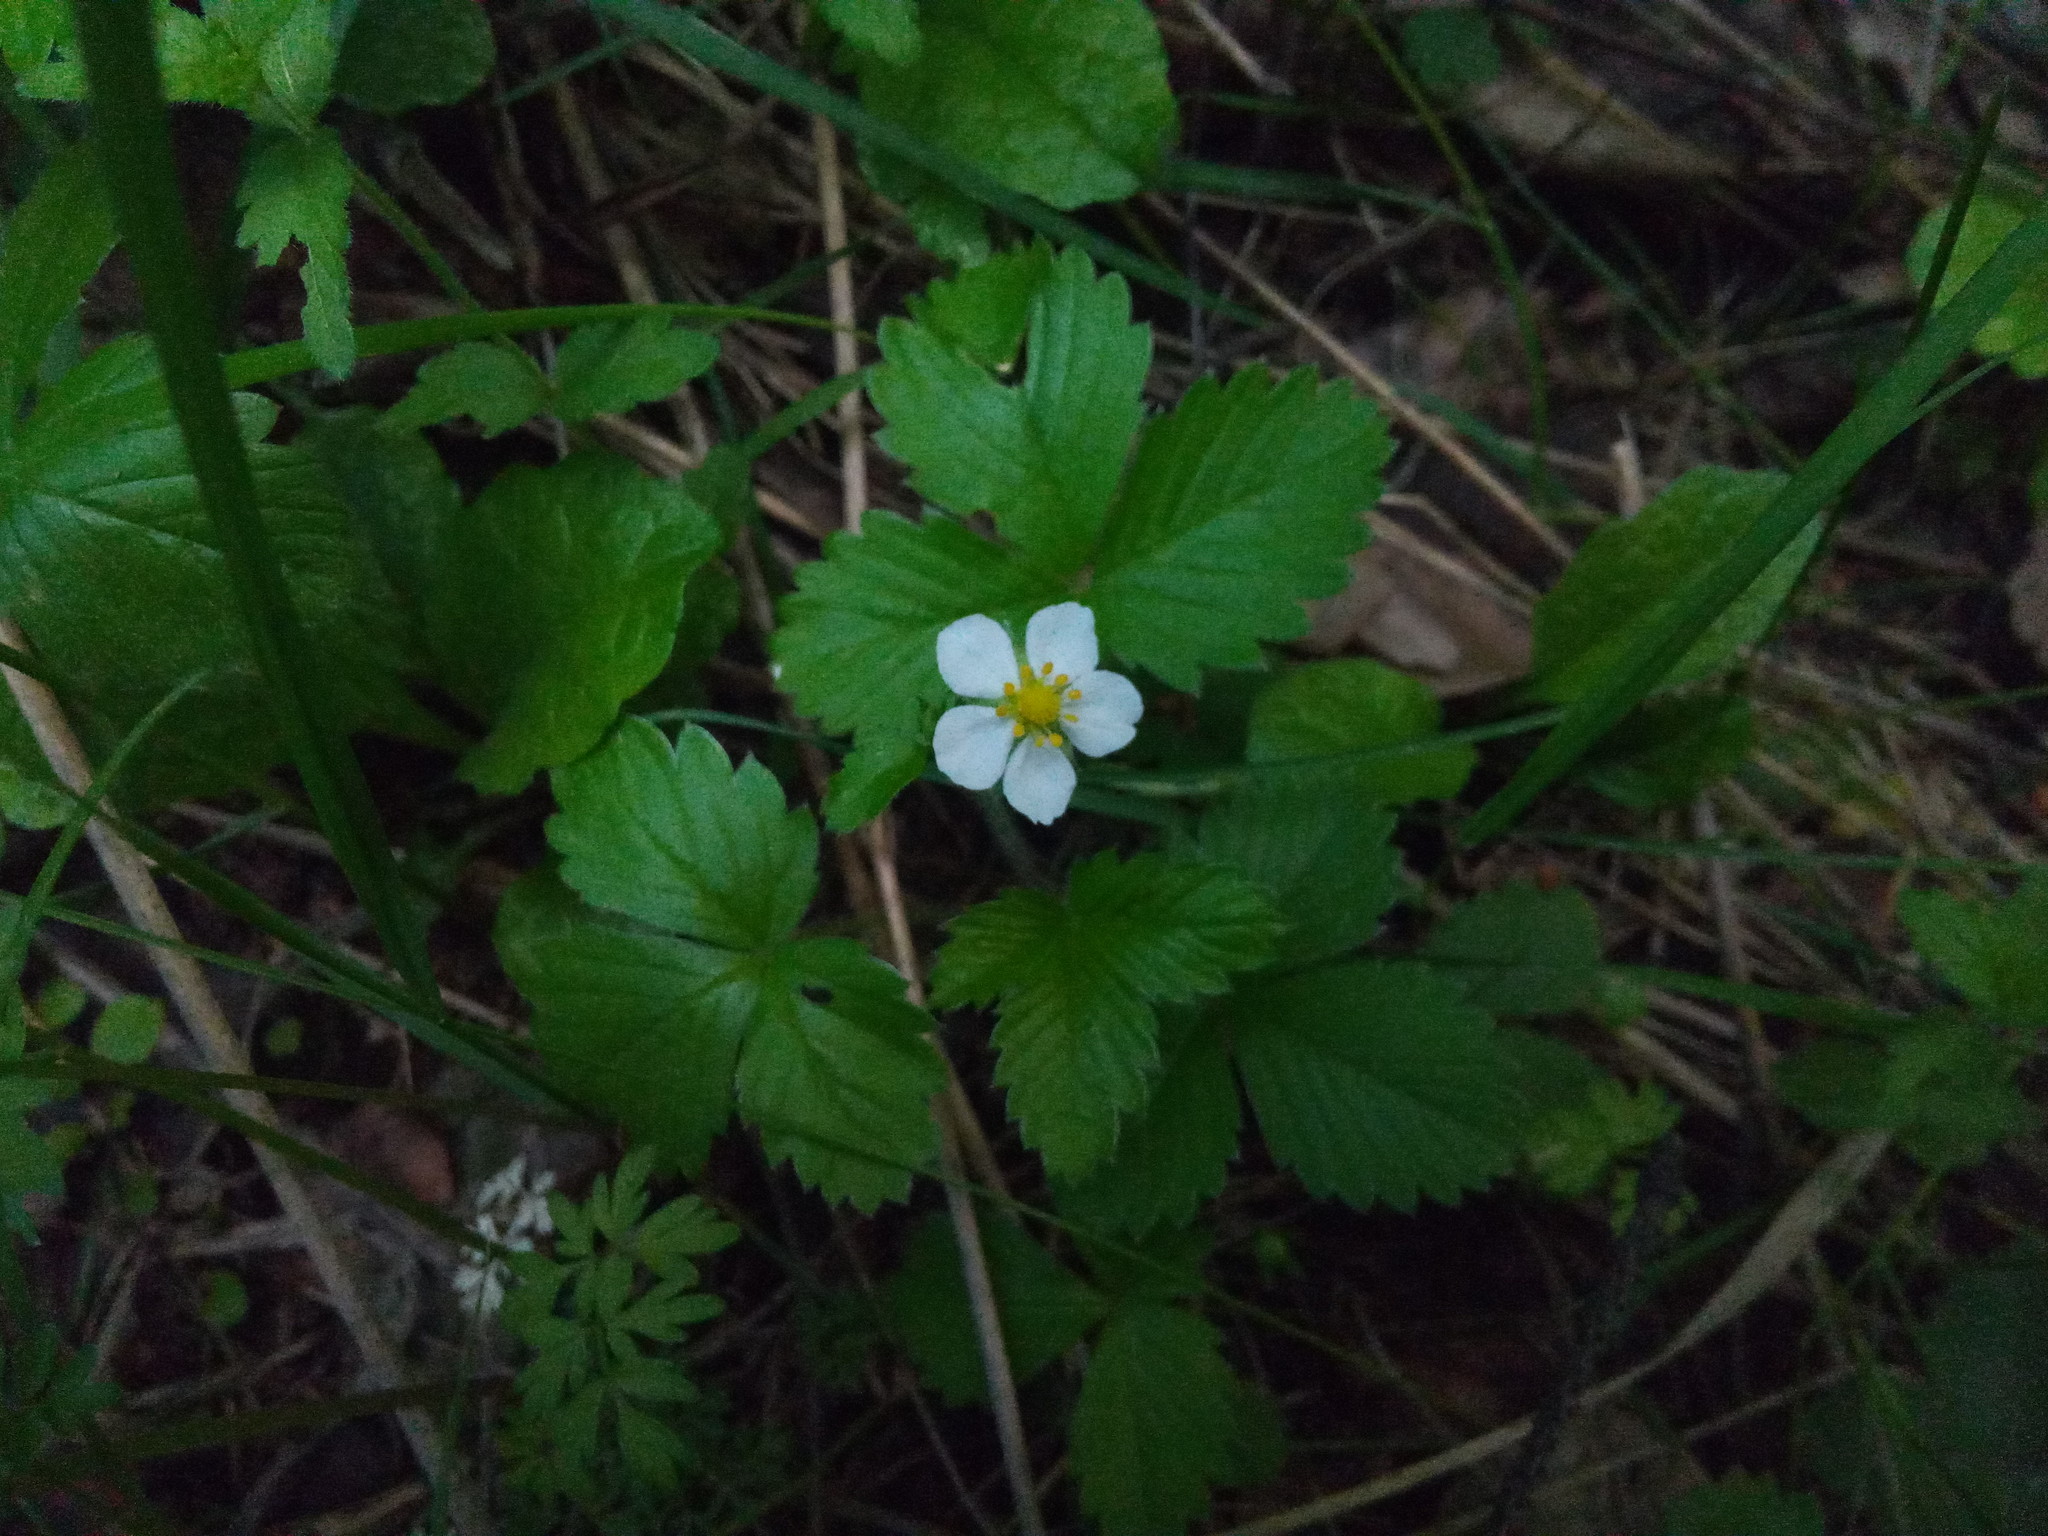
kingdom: Plantae
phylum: Tracheophyta
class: Magnoliopsida
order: Rosales
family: Rosaceae
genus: Fragaria
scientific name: Fragaria vesca
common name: Wild strawberry
